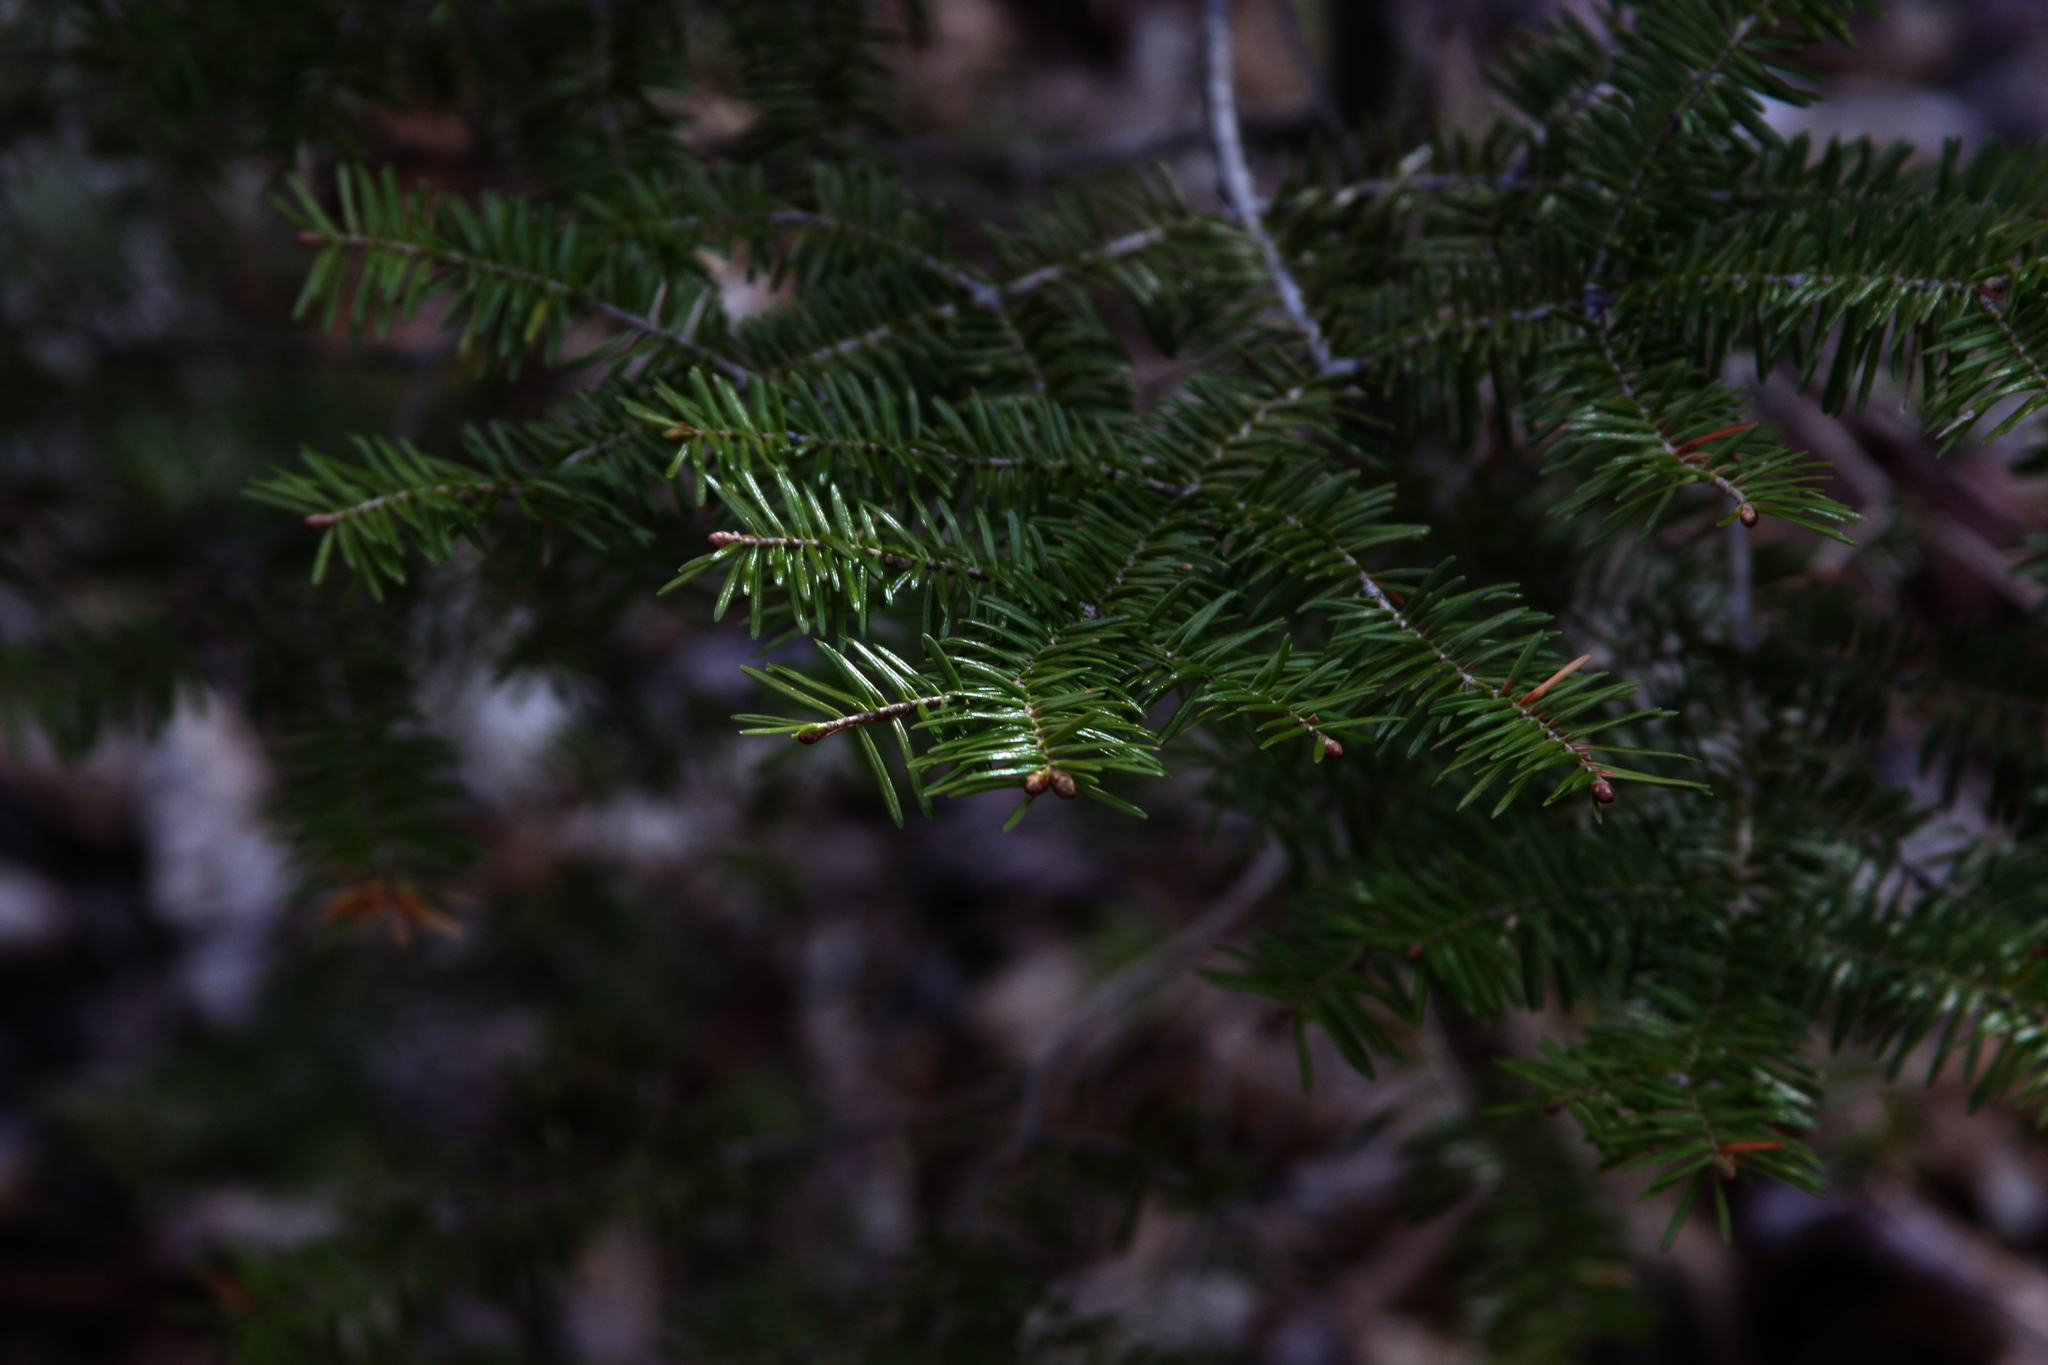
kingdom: Plantae
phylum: Tracheophyta
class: Pinopsida
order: Pinales
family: Pinaceae
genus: Abies
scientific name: Abies balsamea
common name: Balsam fir
